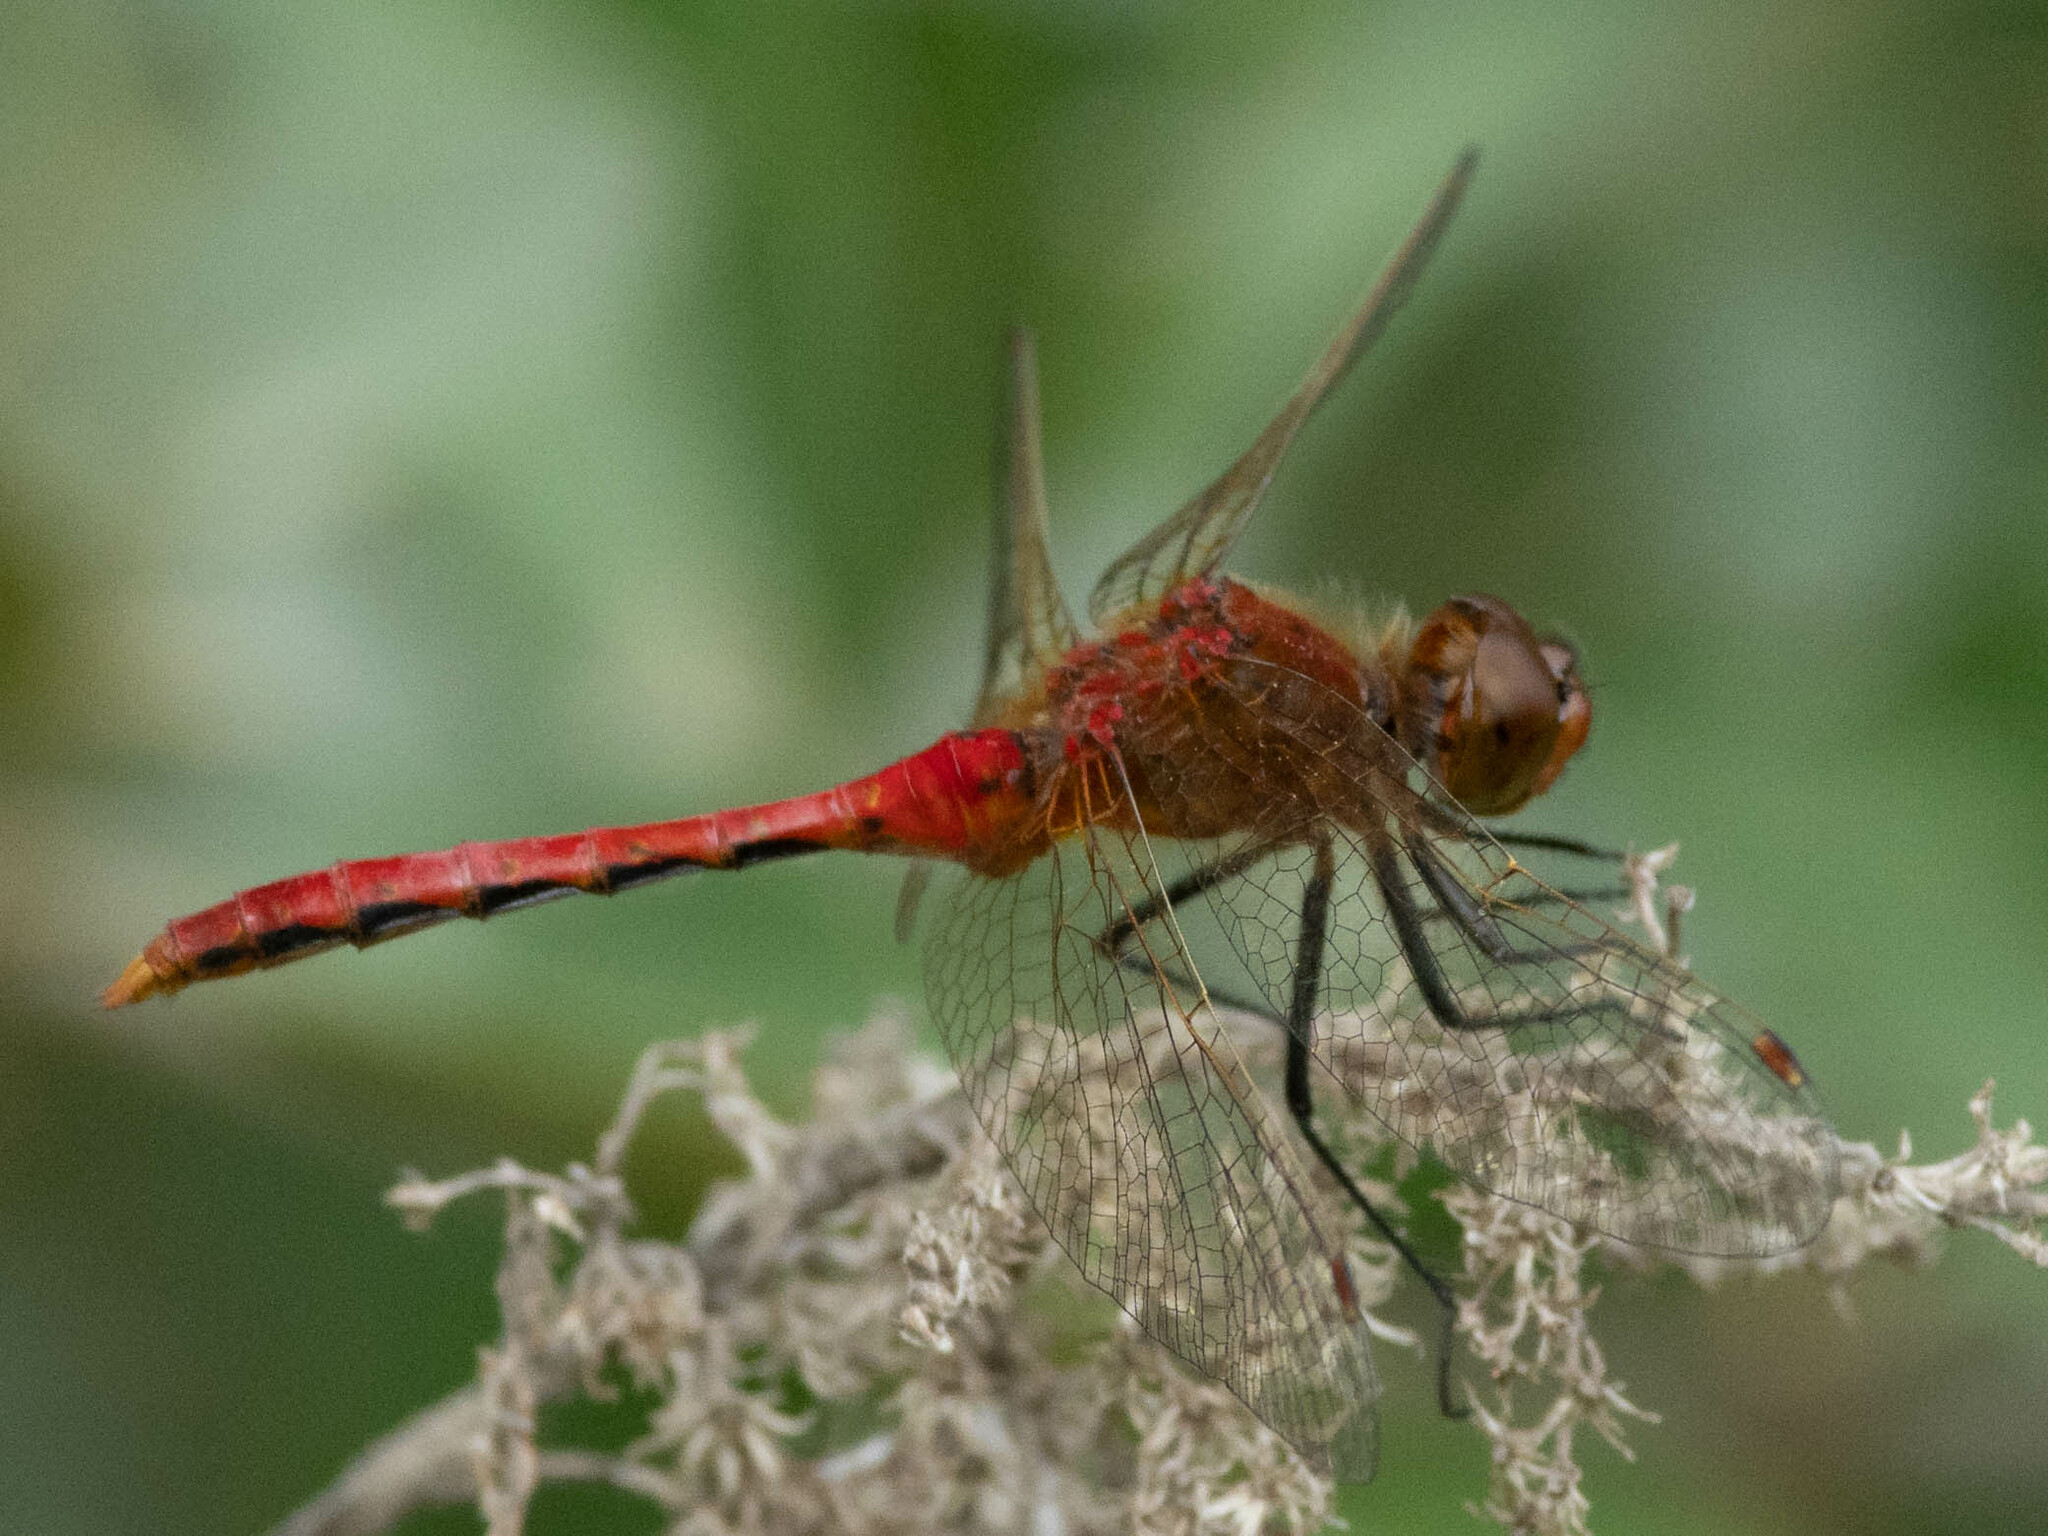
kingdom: Animalia
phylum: Arthropoda
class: Insecta
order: Odonata
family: Libellulidae
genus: Sympetrum
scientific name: Sympetrum internum
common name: Cherry-faced meadowhawk
